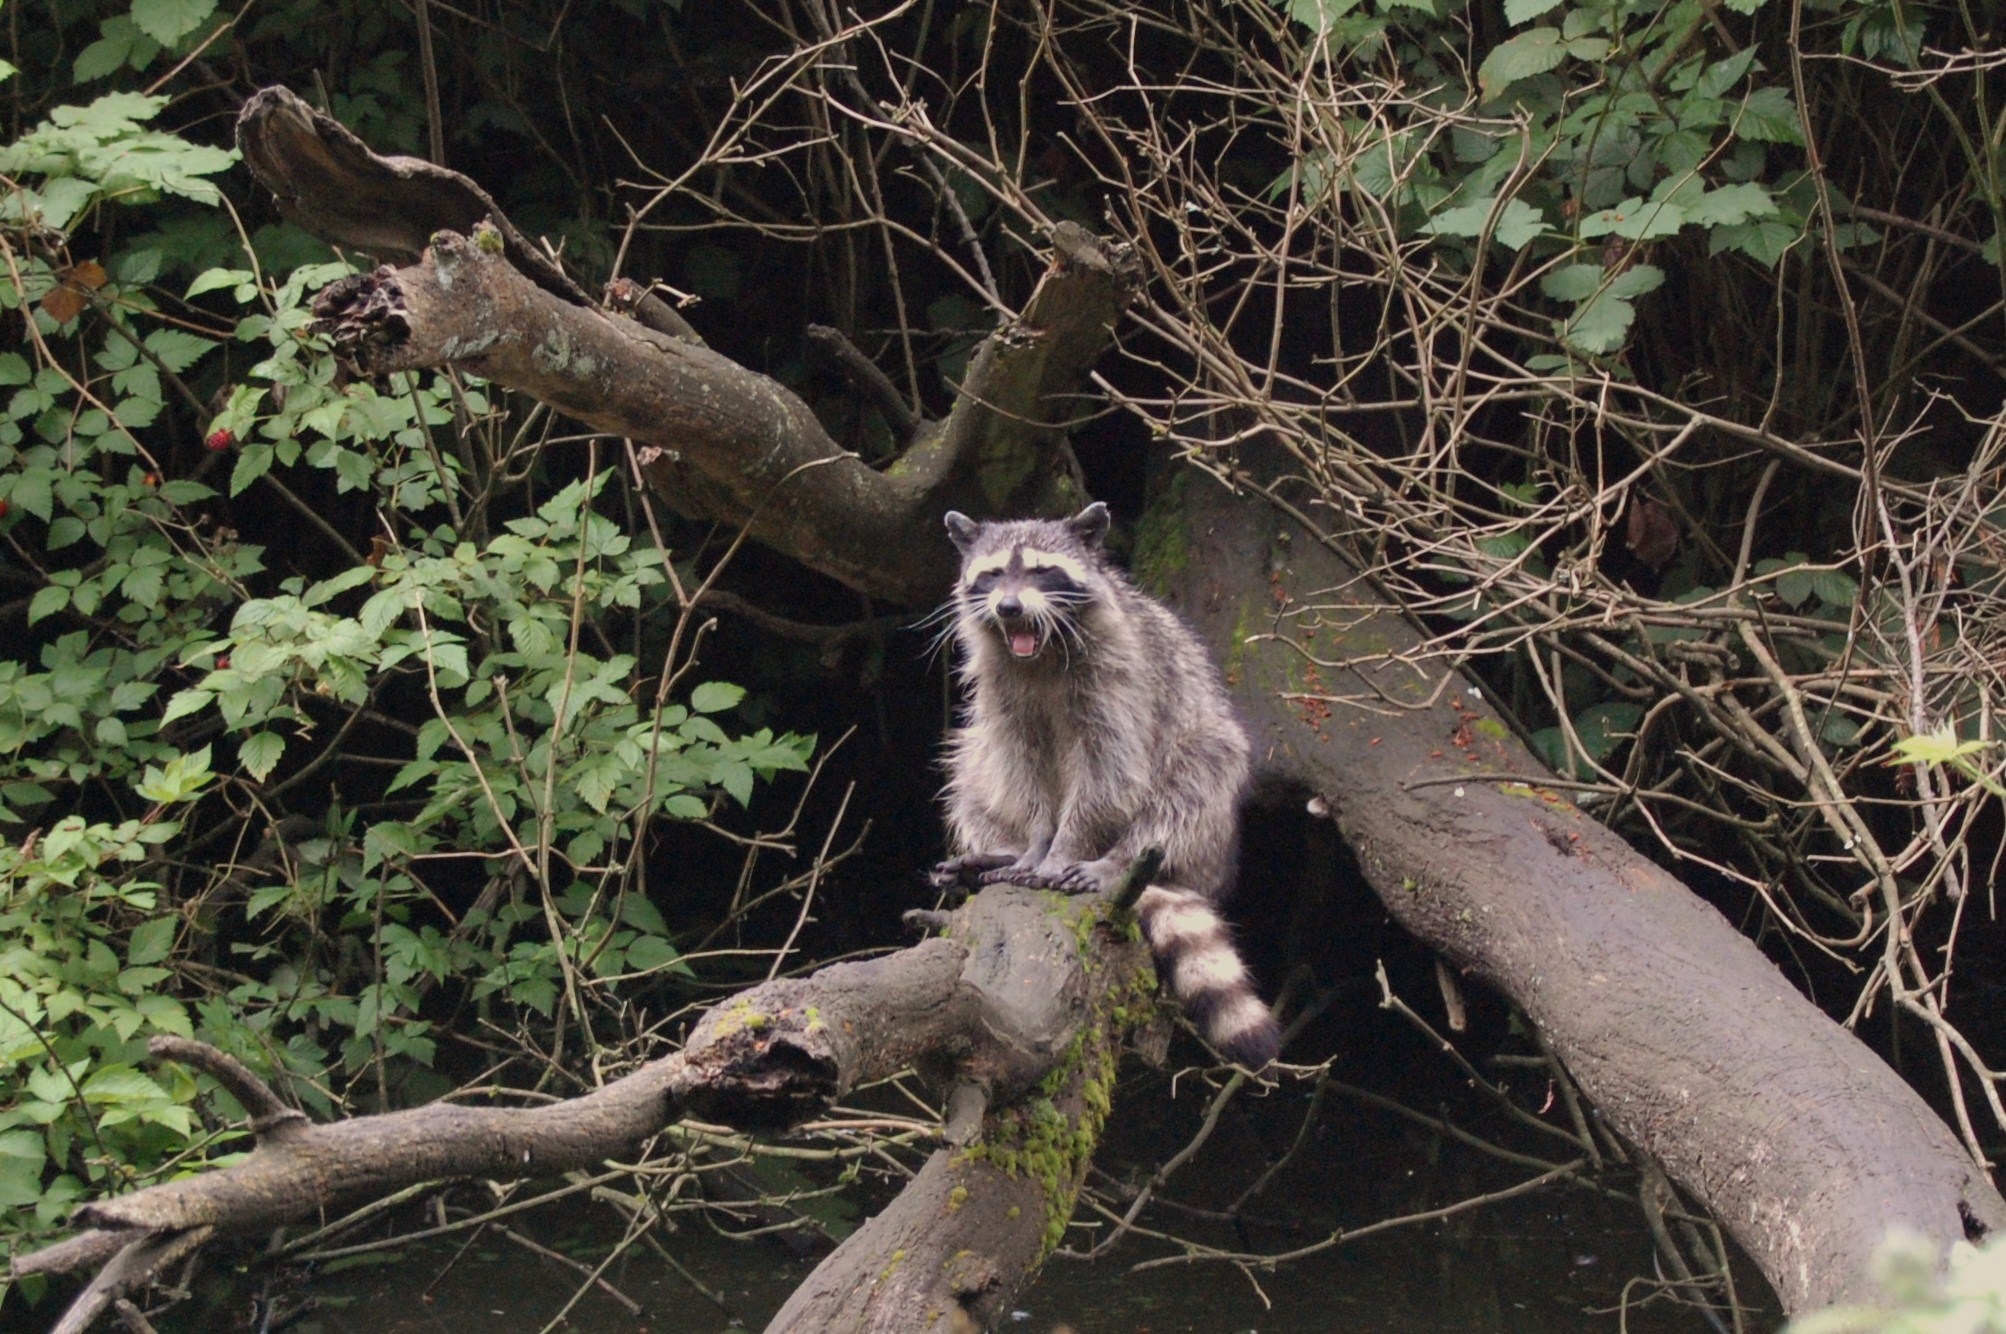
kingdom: Animalia
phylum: Chordata
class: Mammalia
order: Carnivora
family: Procyonidae
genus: Procyon
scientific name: Procyon lotor
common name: Raccoon
